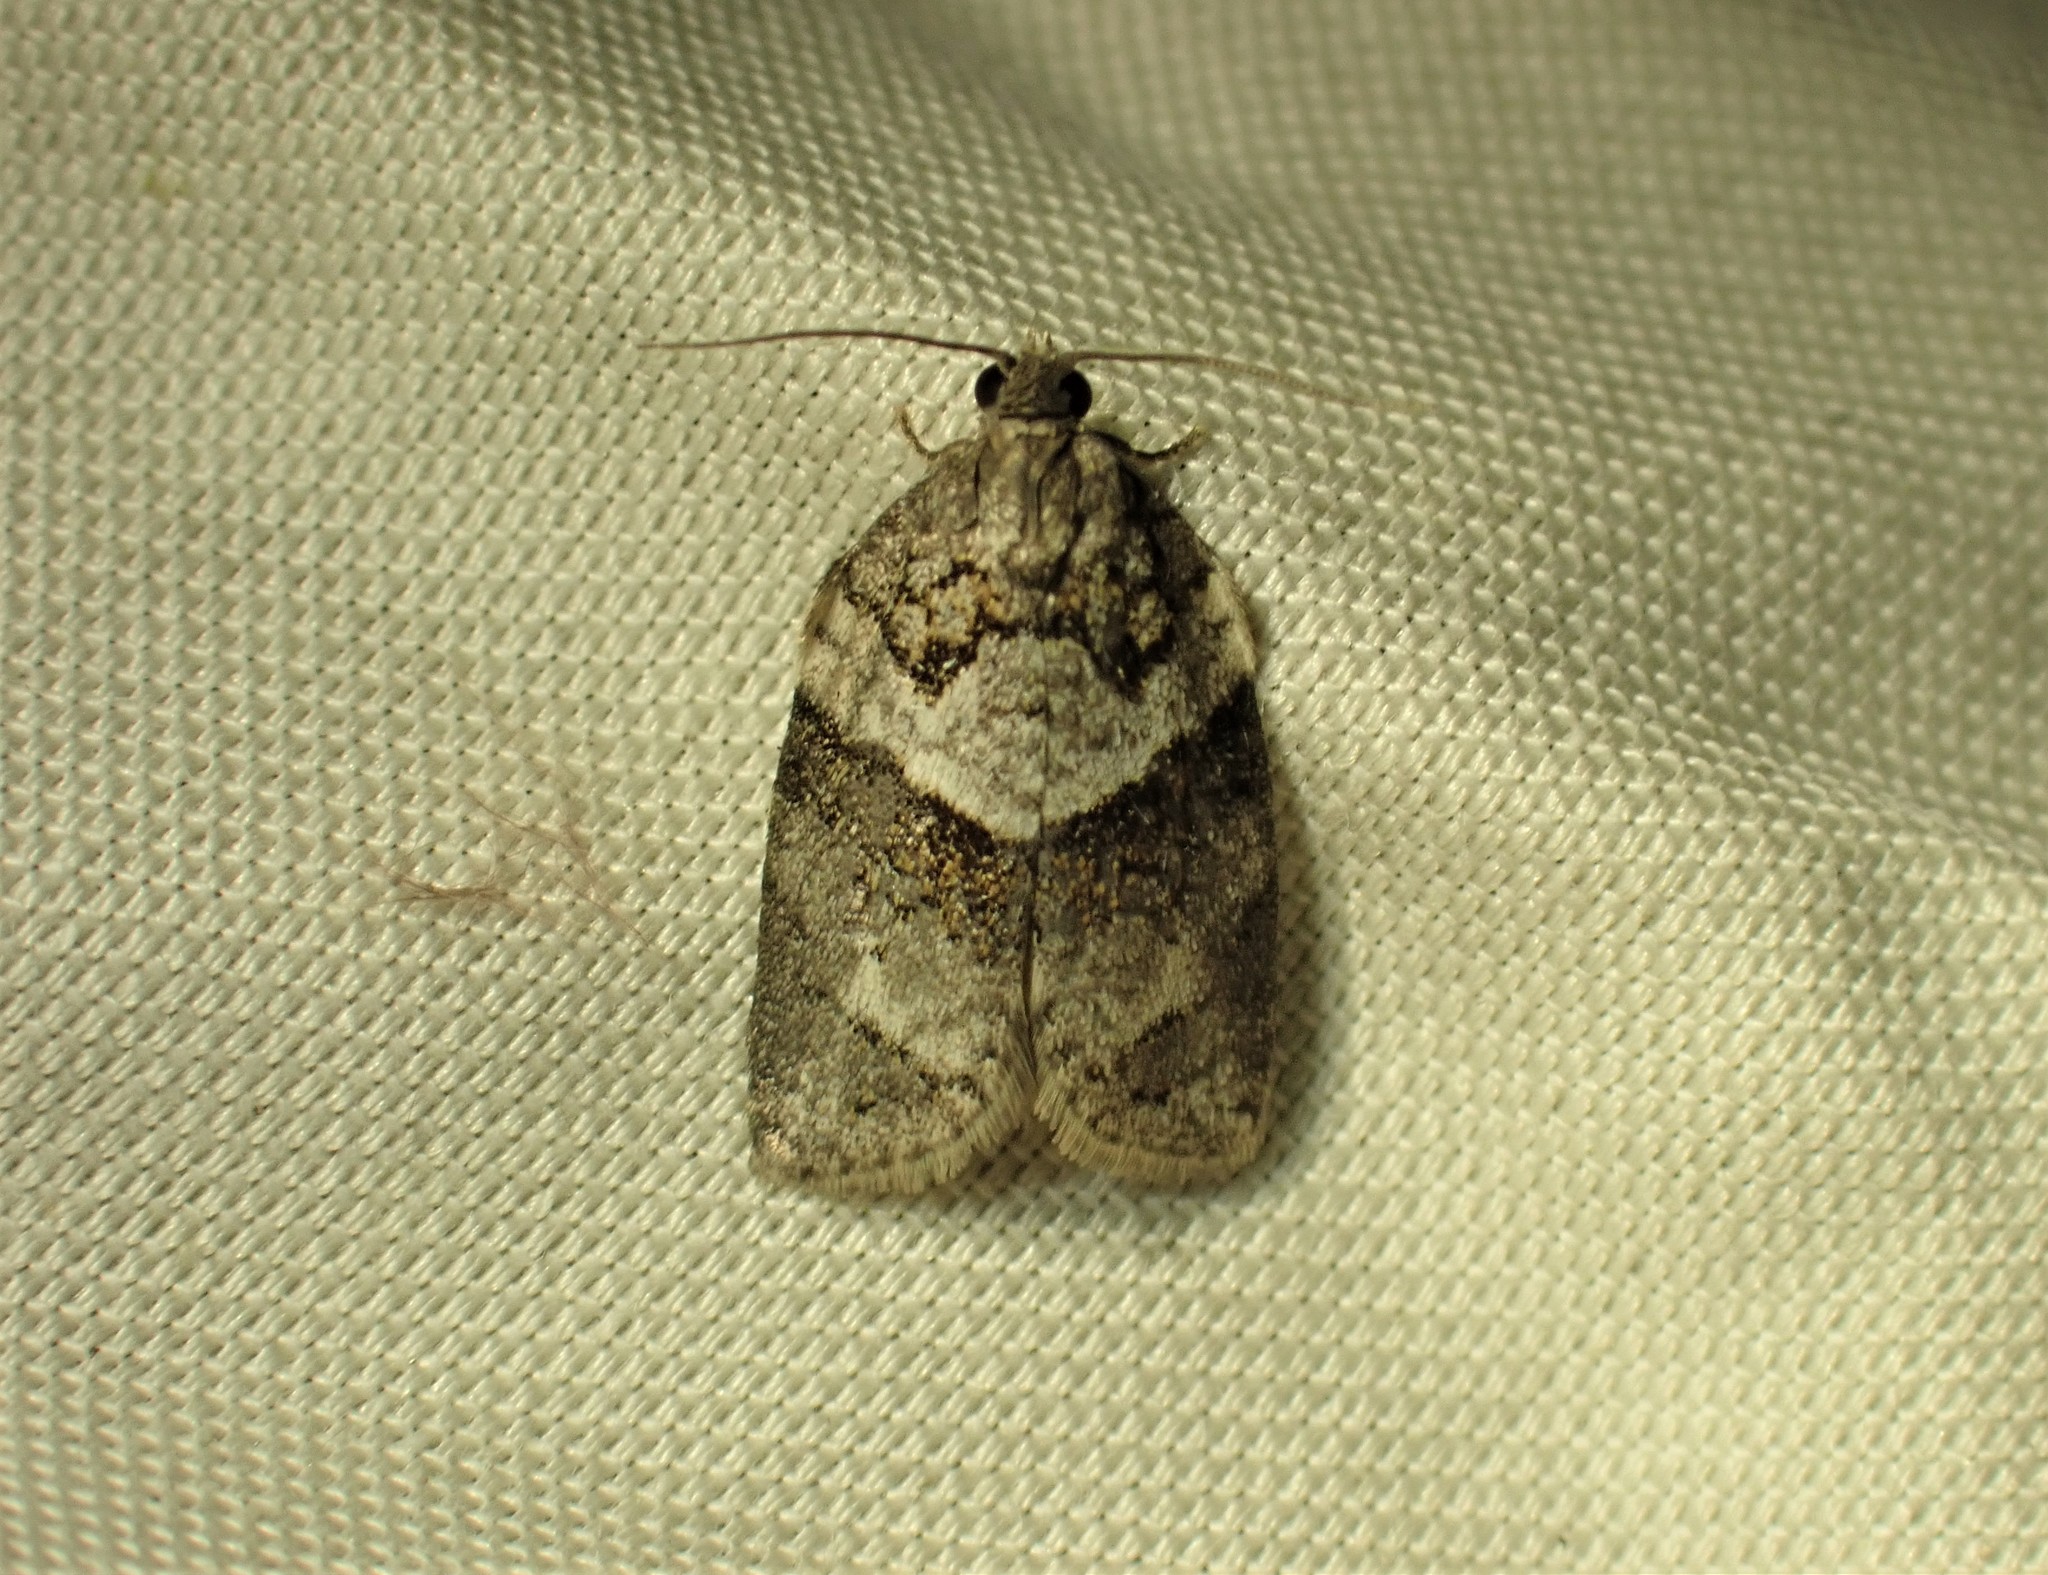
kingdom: Animalia
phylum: Arthropoda
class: Insecta
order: Lepidoptera
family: Tortricidae
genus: Syndemis
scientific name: Syndemis afflictana
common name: Gray leafroller moth
